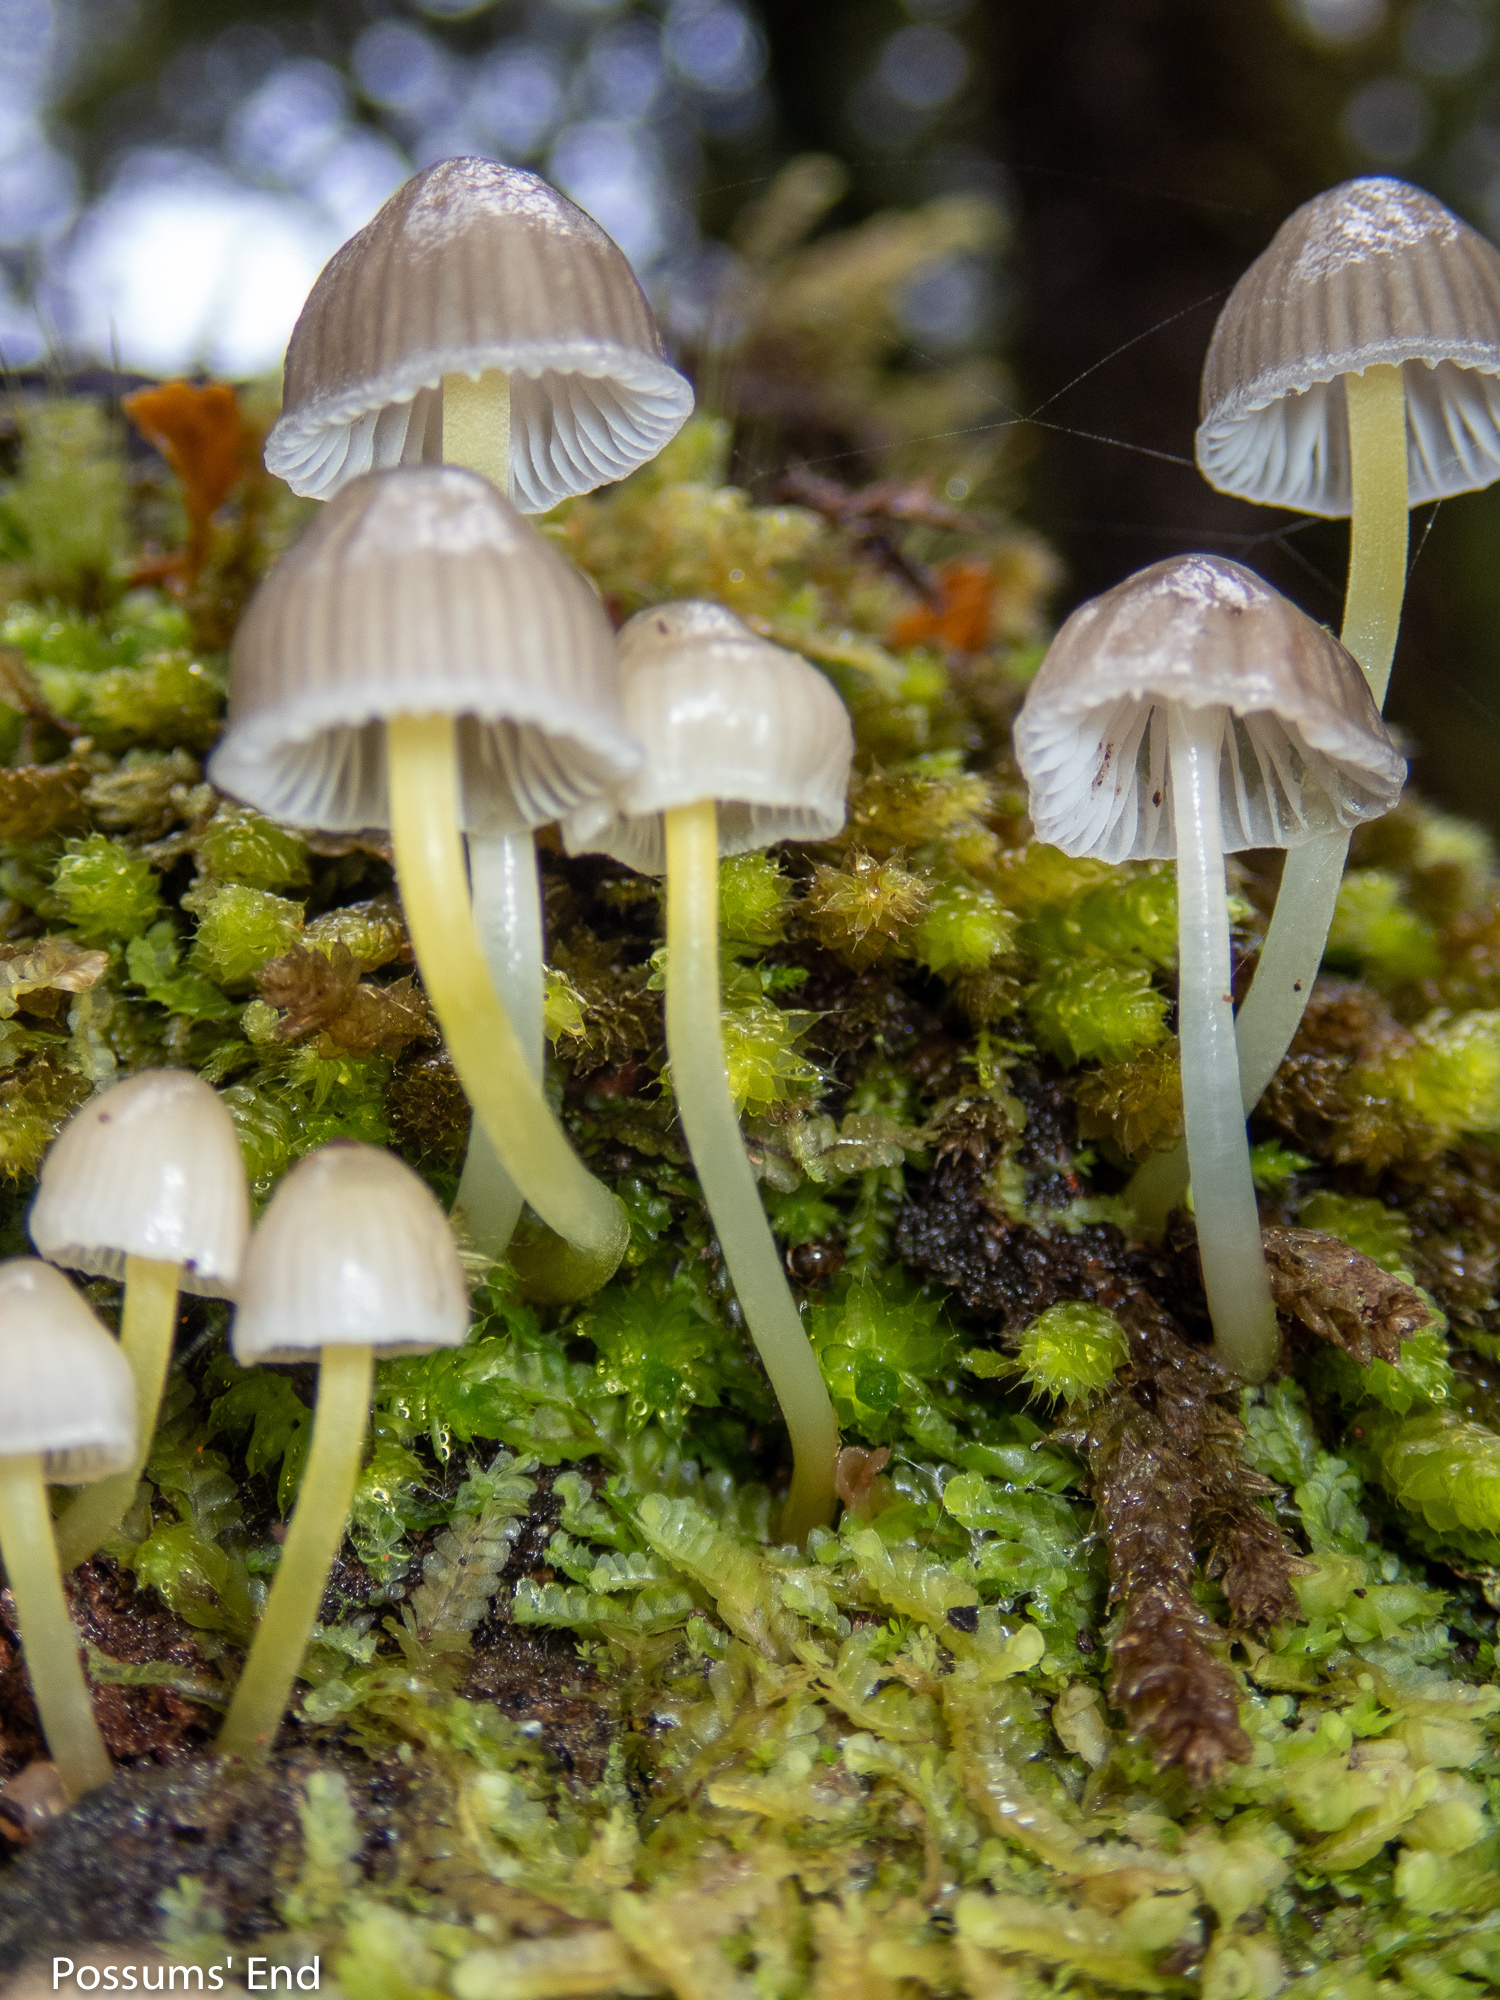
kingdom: Fungi
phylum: Basidiomycota
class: Agaricomycetes
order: Agaricales
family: Mycenaceae
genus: Mycena
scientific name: Mycena subviscosa
